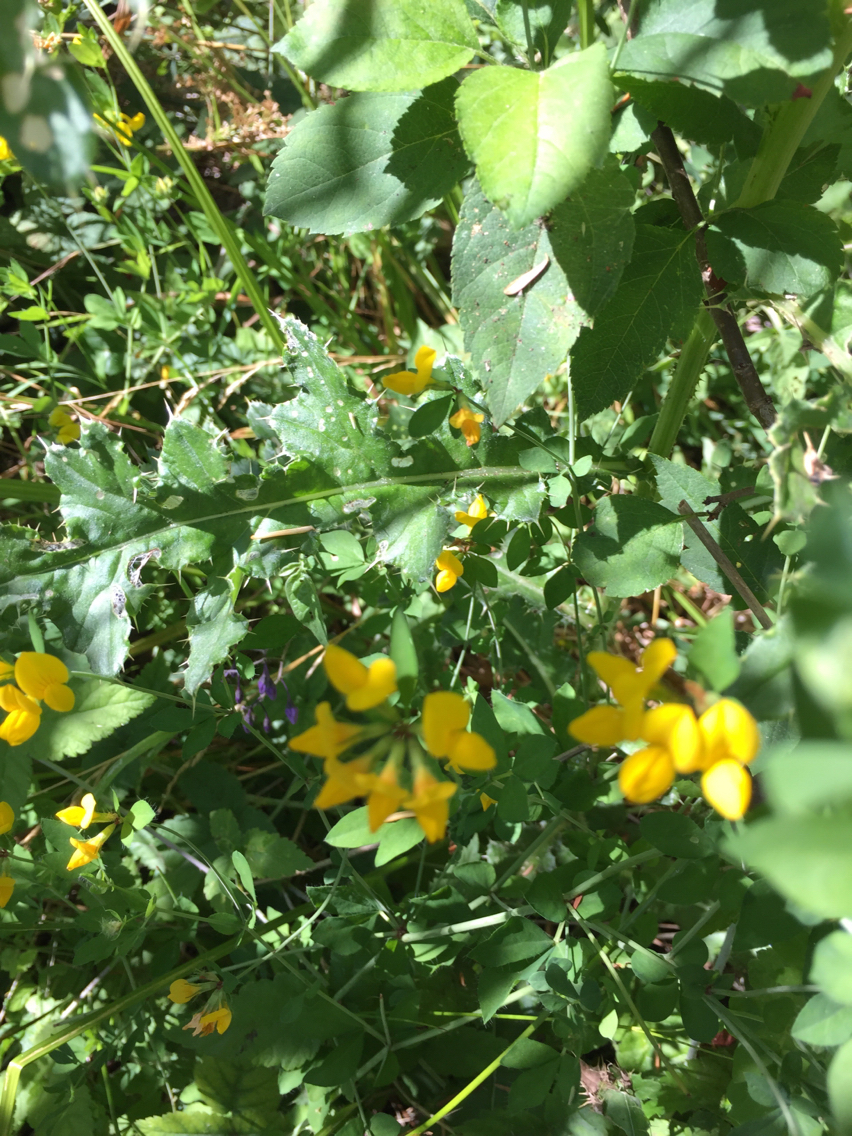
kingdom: Plantae
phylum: Tracheophyta
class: Magnoliopsida
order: Fabales
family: Fabaceae
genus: Lotus
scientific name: Lotus corniculatus
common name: Common bird's-foot-trefoil
